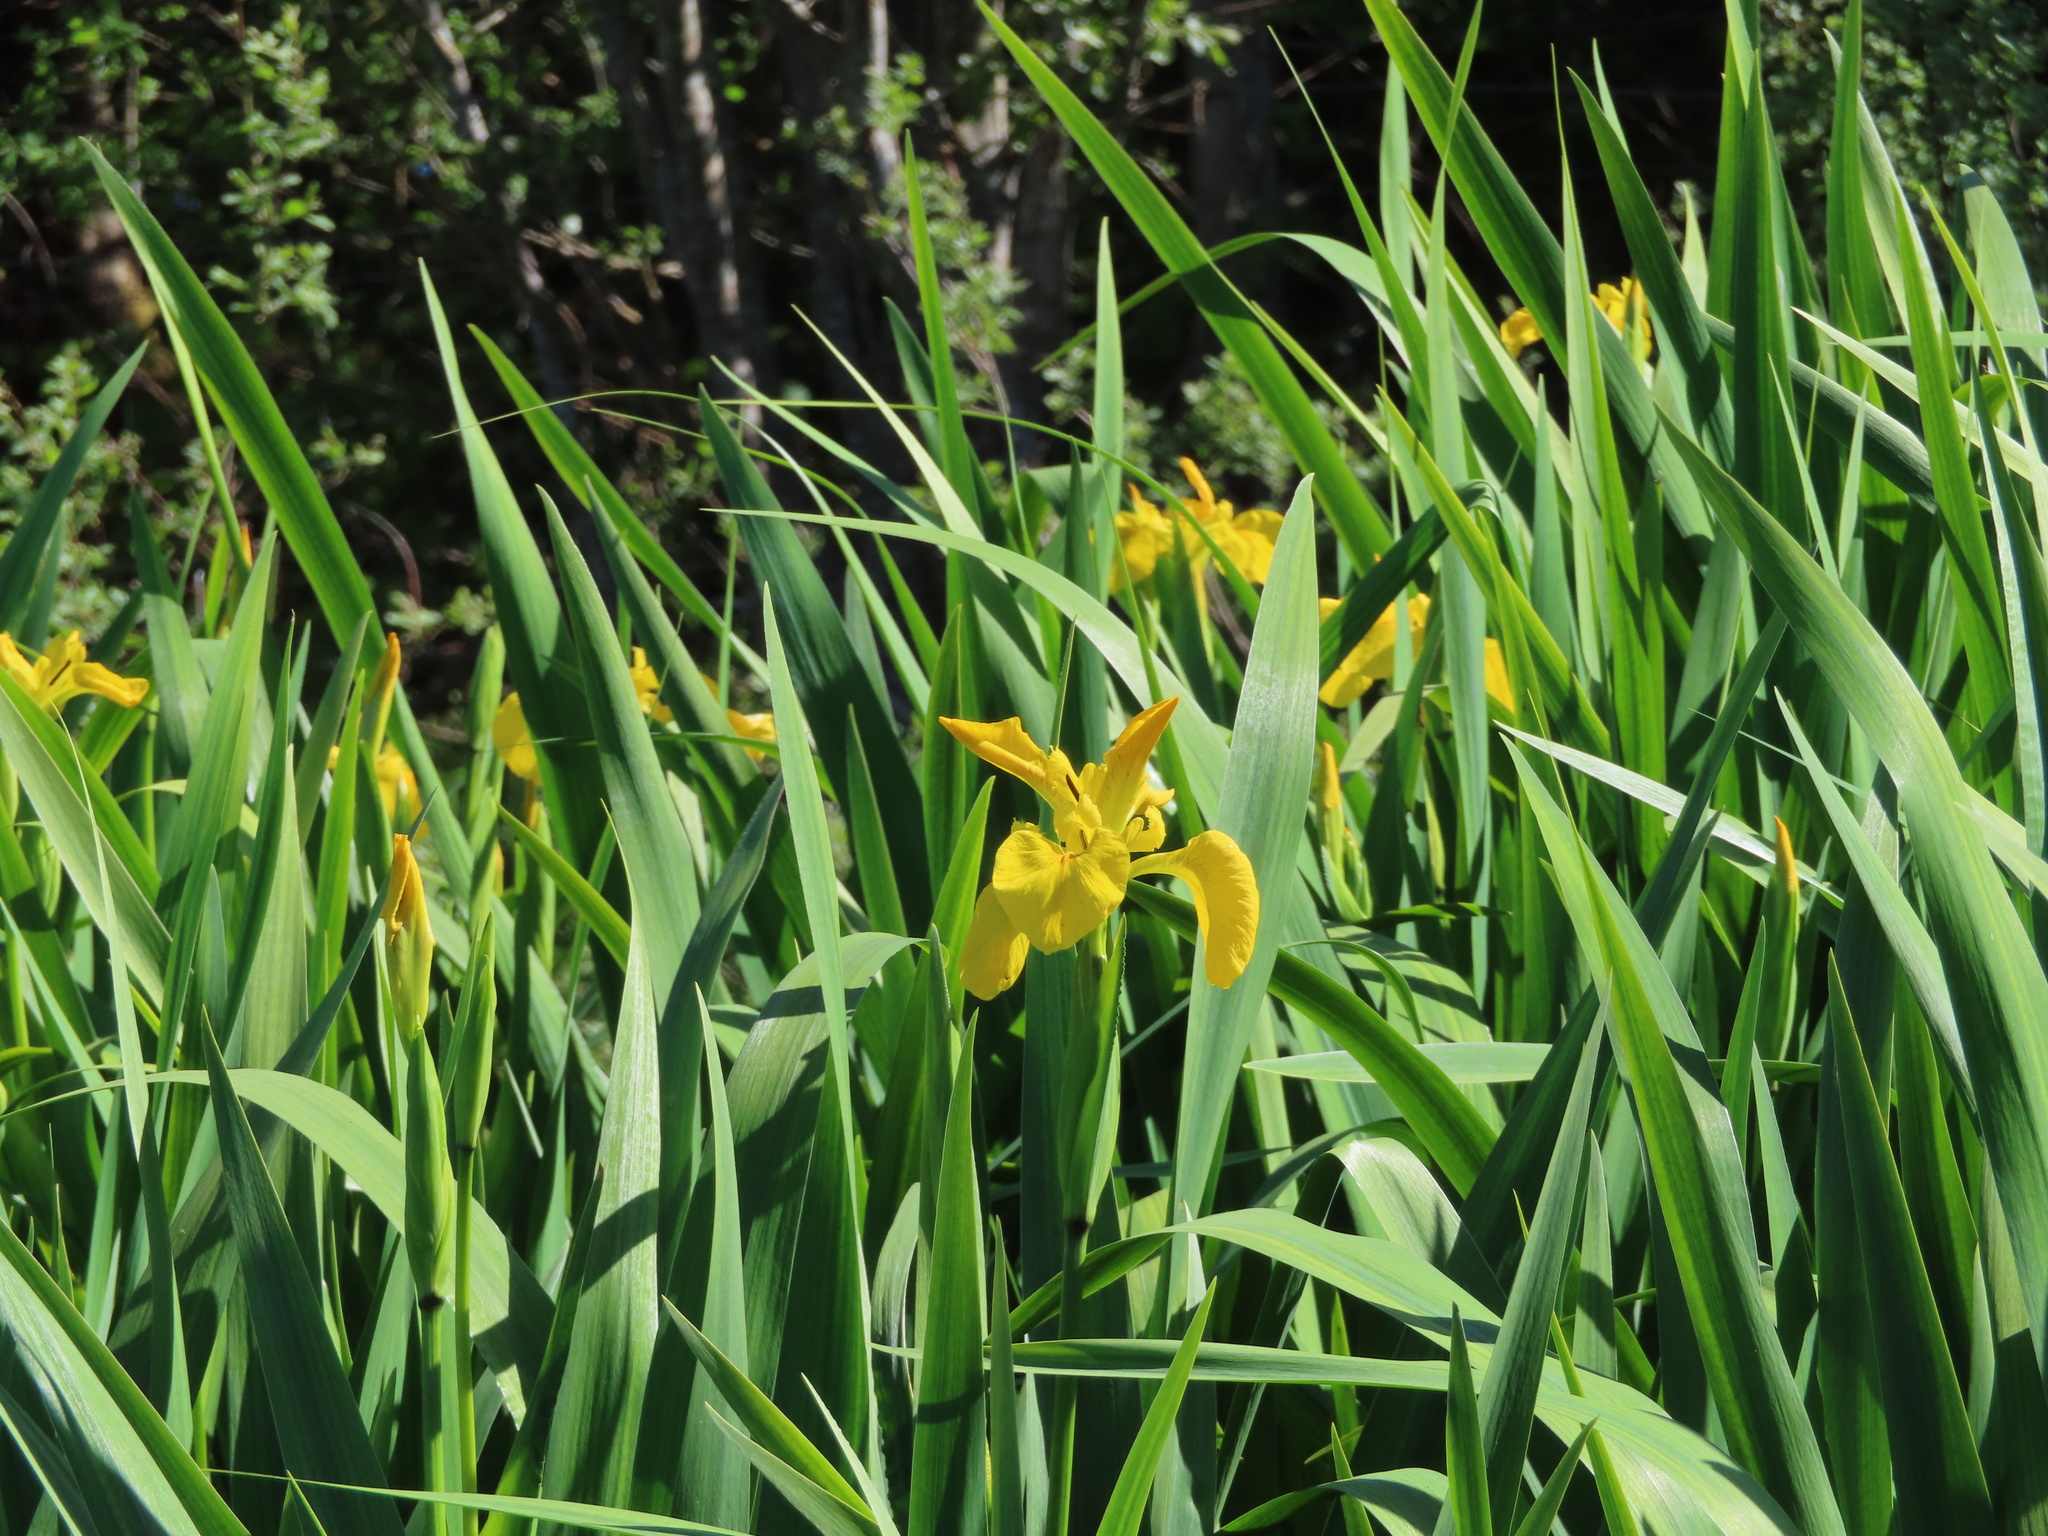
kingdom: Plantae
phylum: Tracheophyta
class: Liliopsida
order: Asparagales
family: Iridaceae
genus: Iris
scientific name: Iris pseudacorus
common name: Yellow flag
